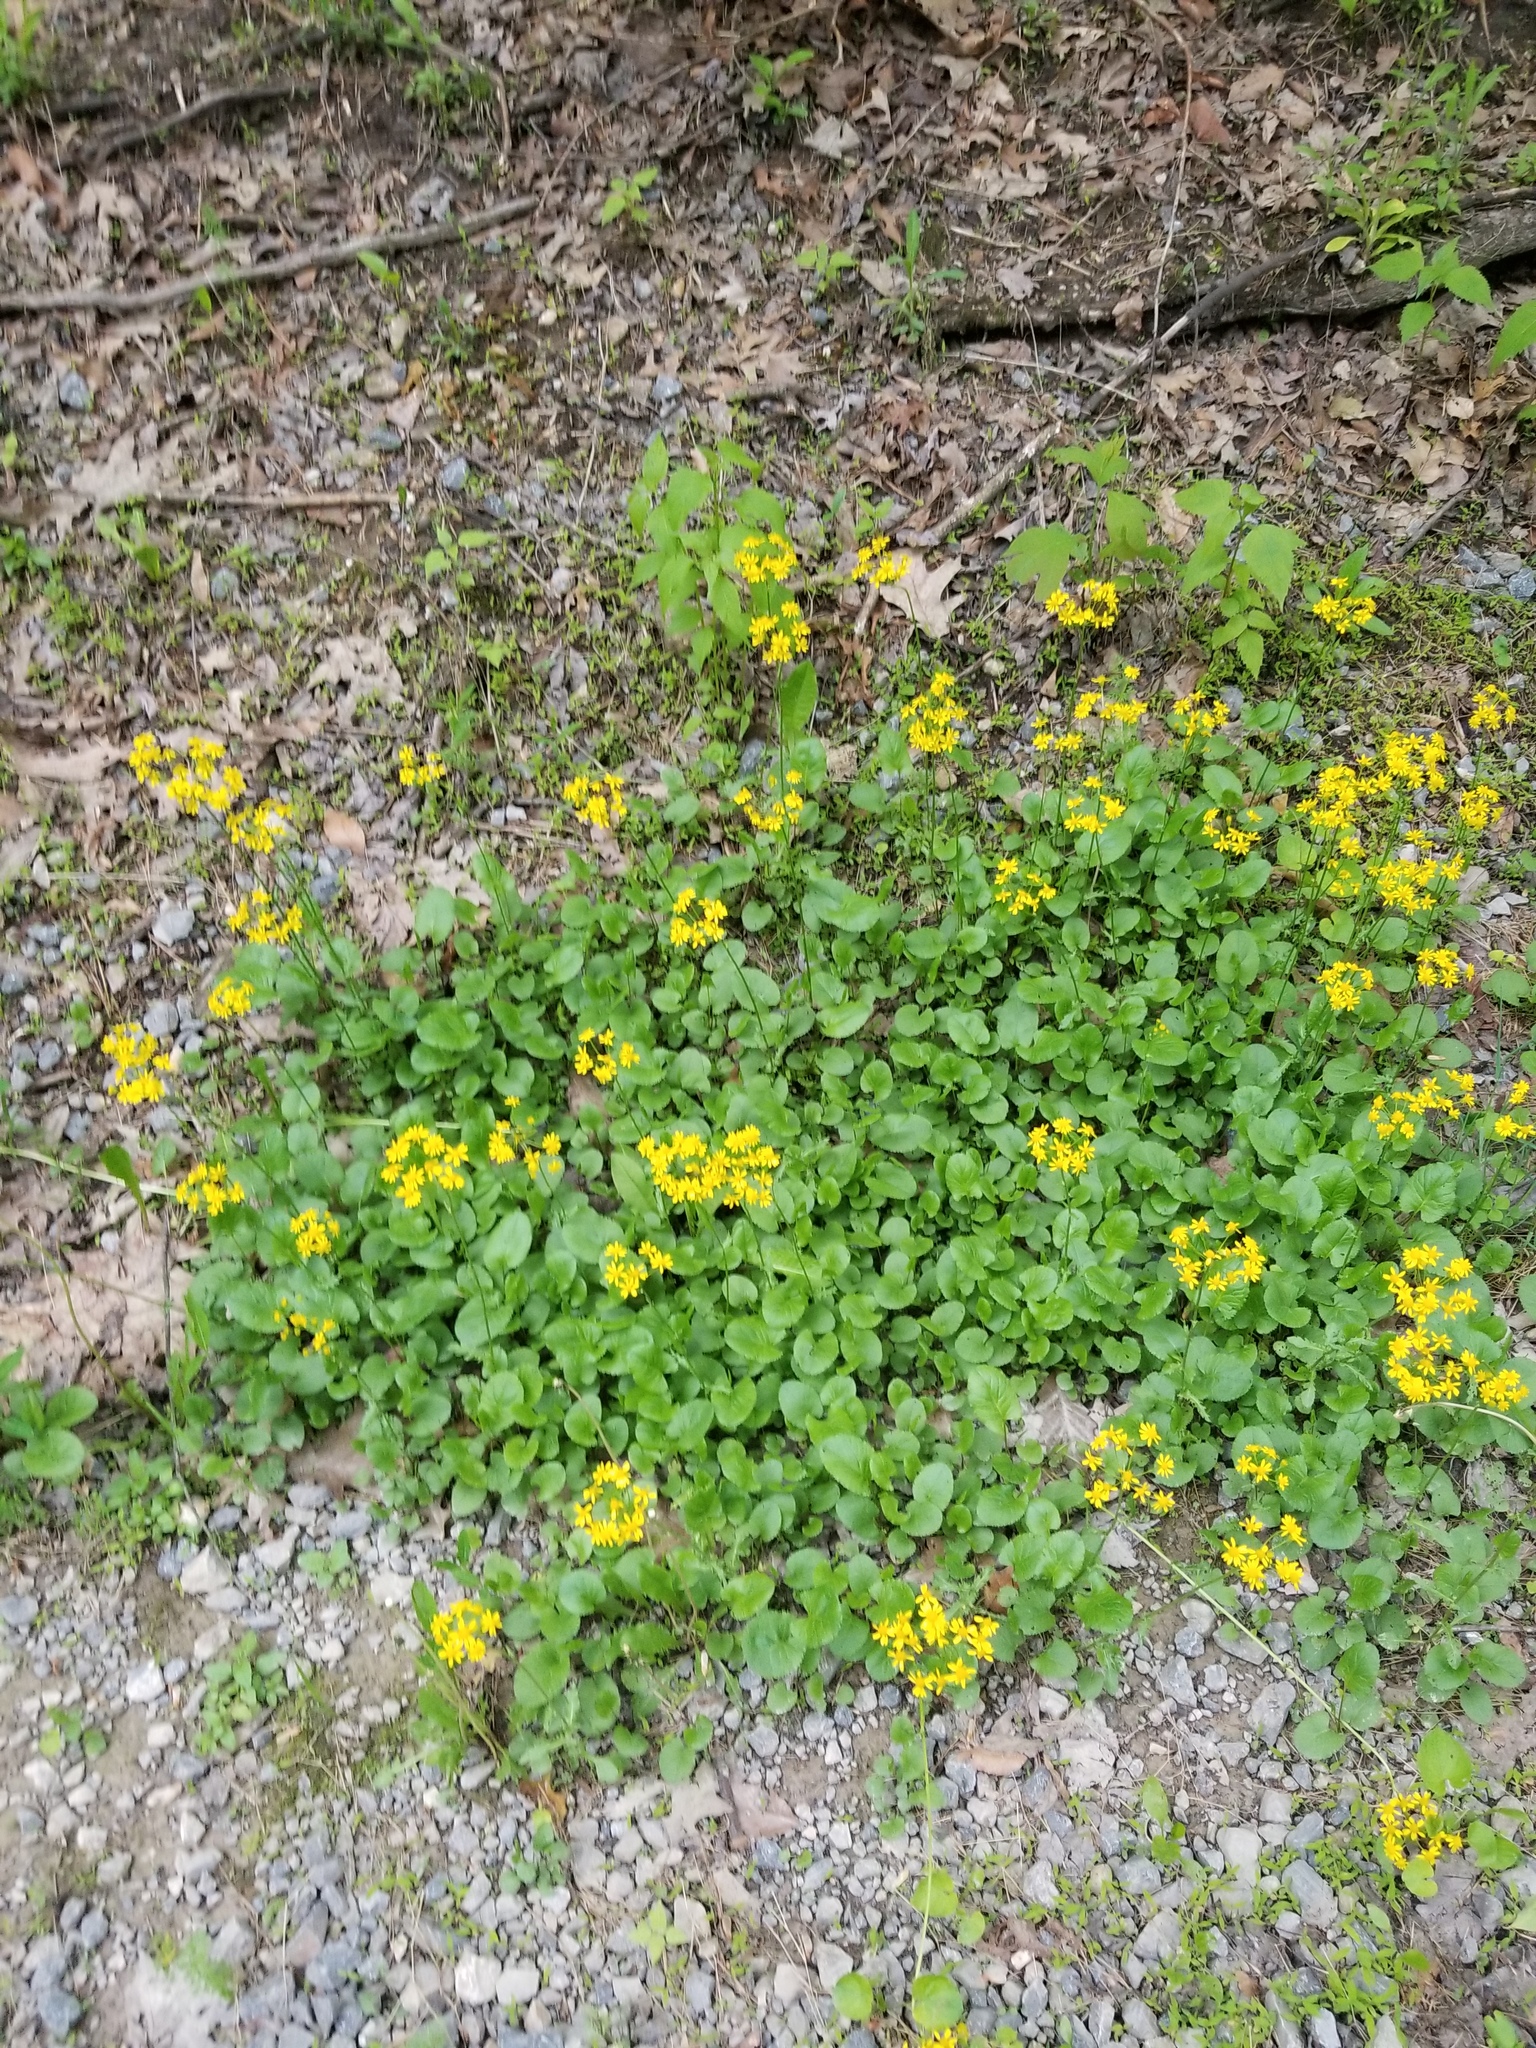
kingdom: Plantae
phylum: Tracheophyta
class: Magnoliopsida
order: Asterales
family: Asteraceae
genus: Packera
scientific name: Packera aurea
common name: Golden groundsel
